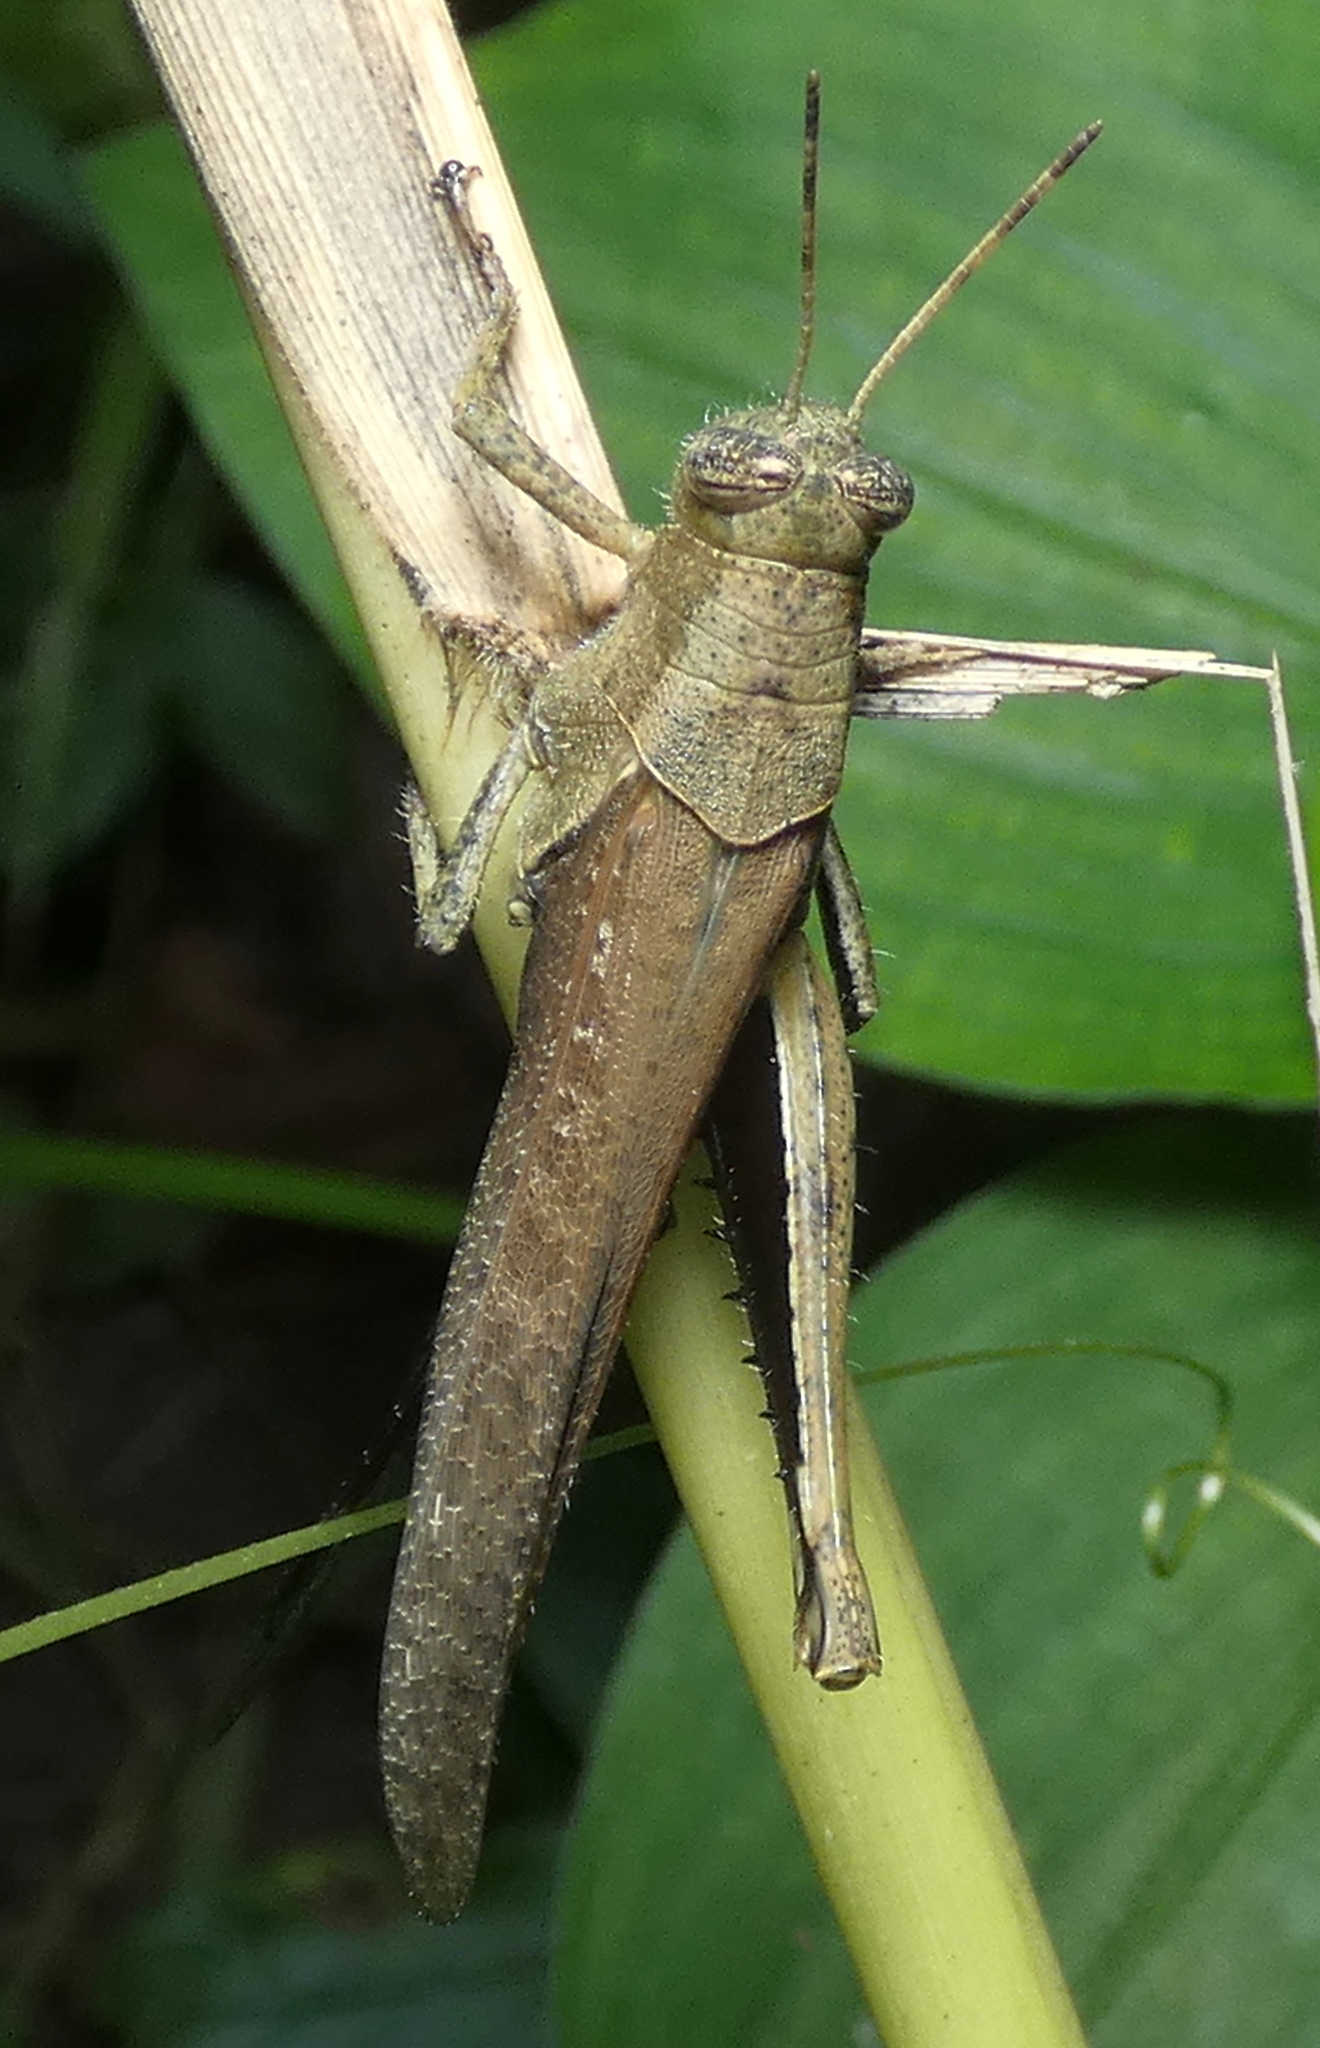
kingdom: Animalia
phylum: Arthropoda
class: Insecta
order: Orthoptera
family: Acrididae
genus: Abracris
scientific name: Abracris flavolineata
